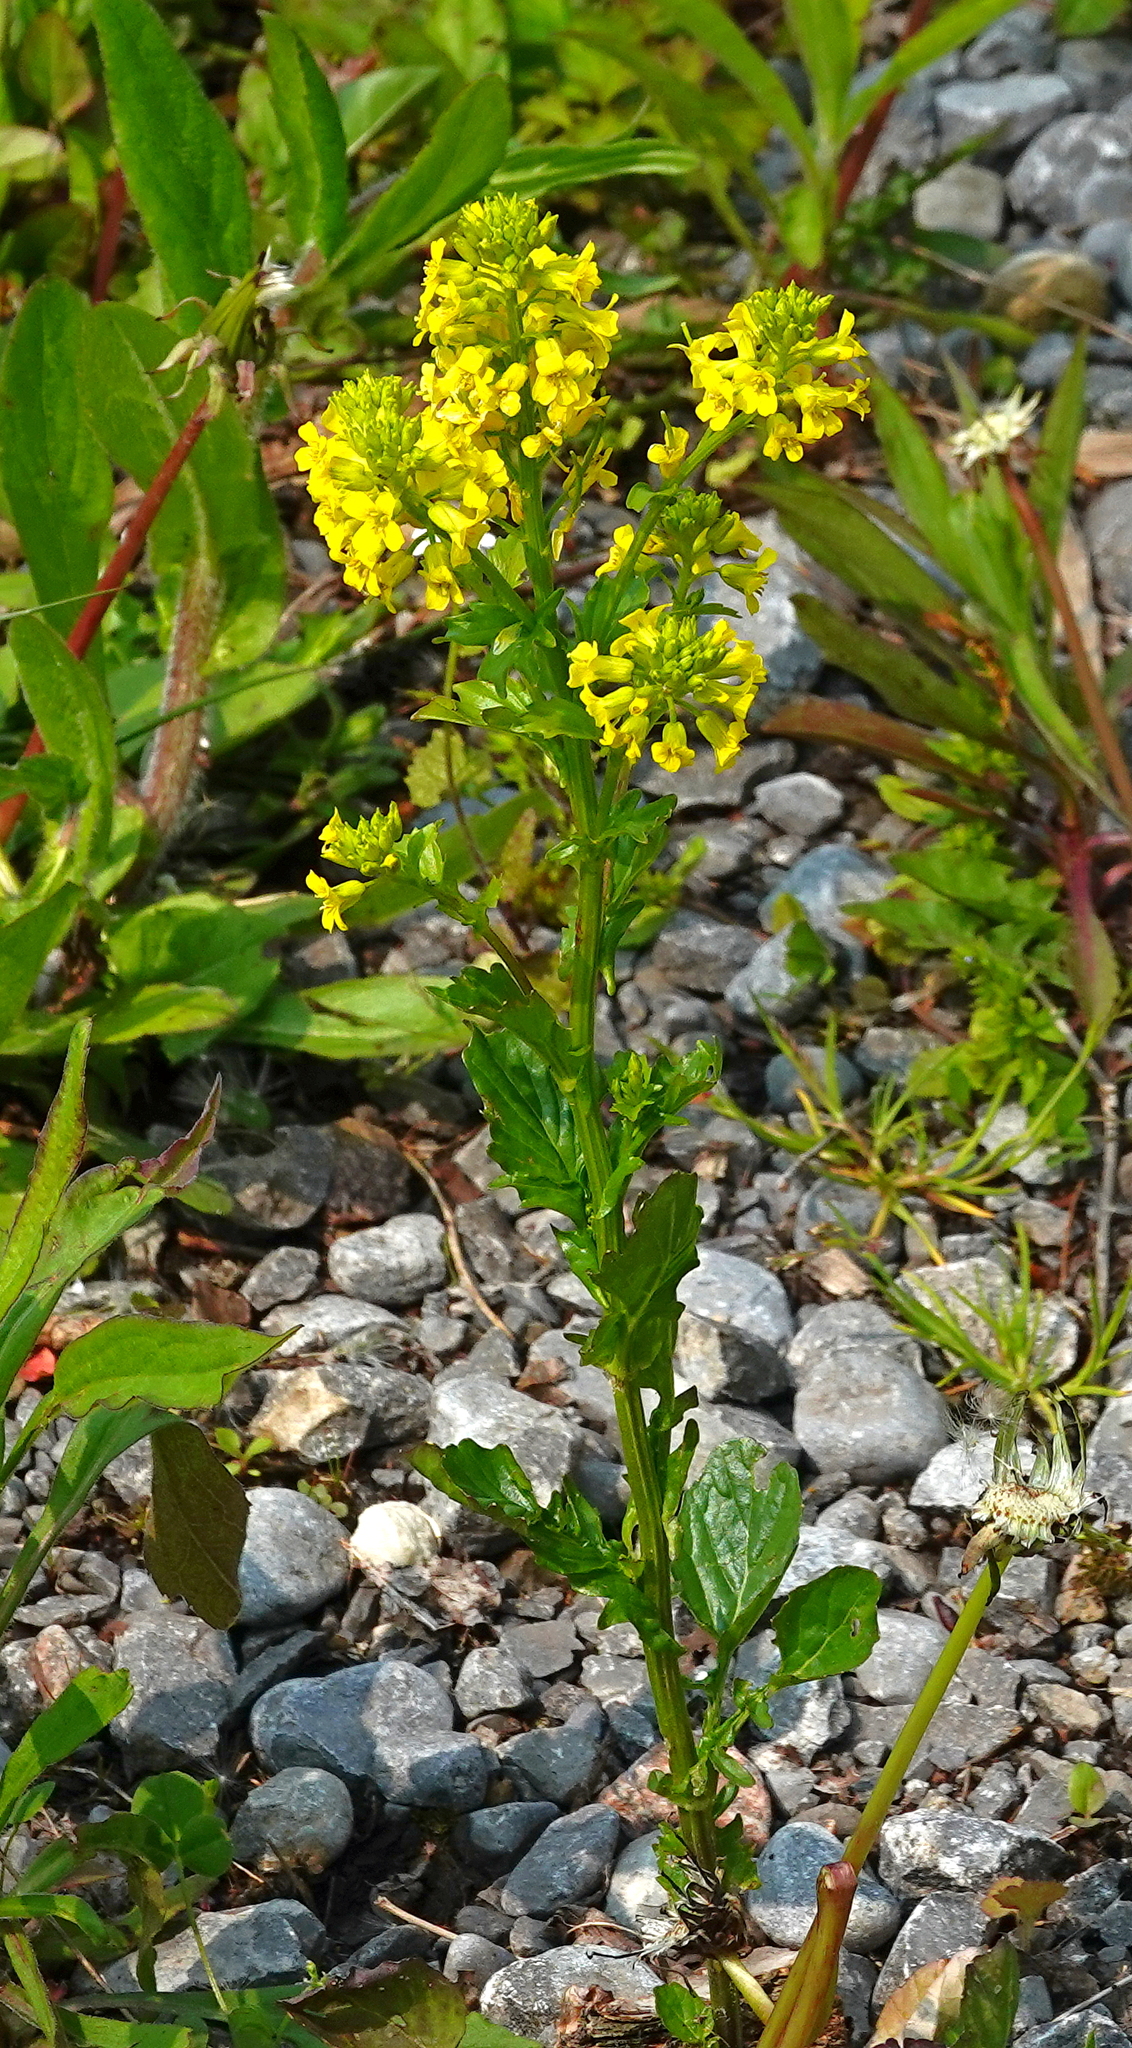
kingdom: Plantae
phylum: Tracheophyta
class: Magnoliopsida
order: Brassicales
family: Brassicaceae
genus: Barbarea
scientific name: Barbarea vulgaris
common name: Cressy-greens
